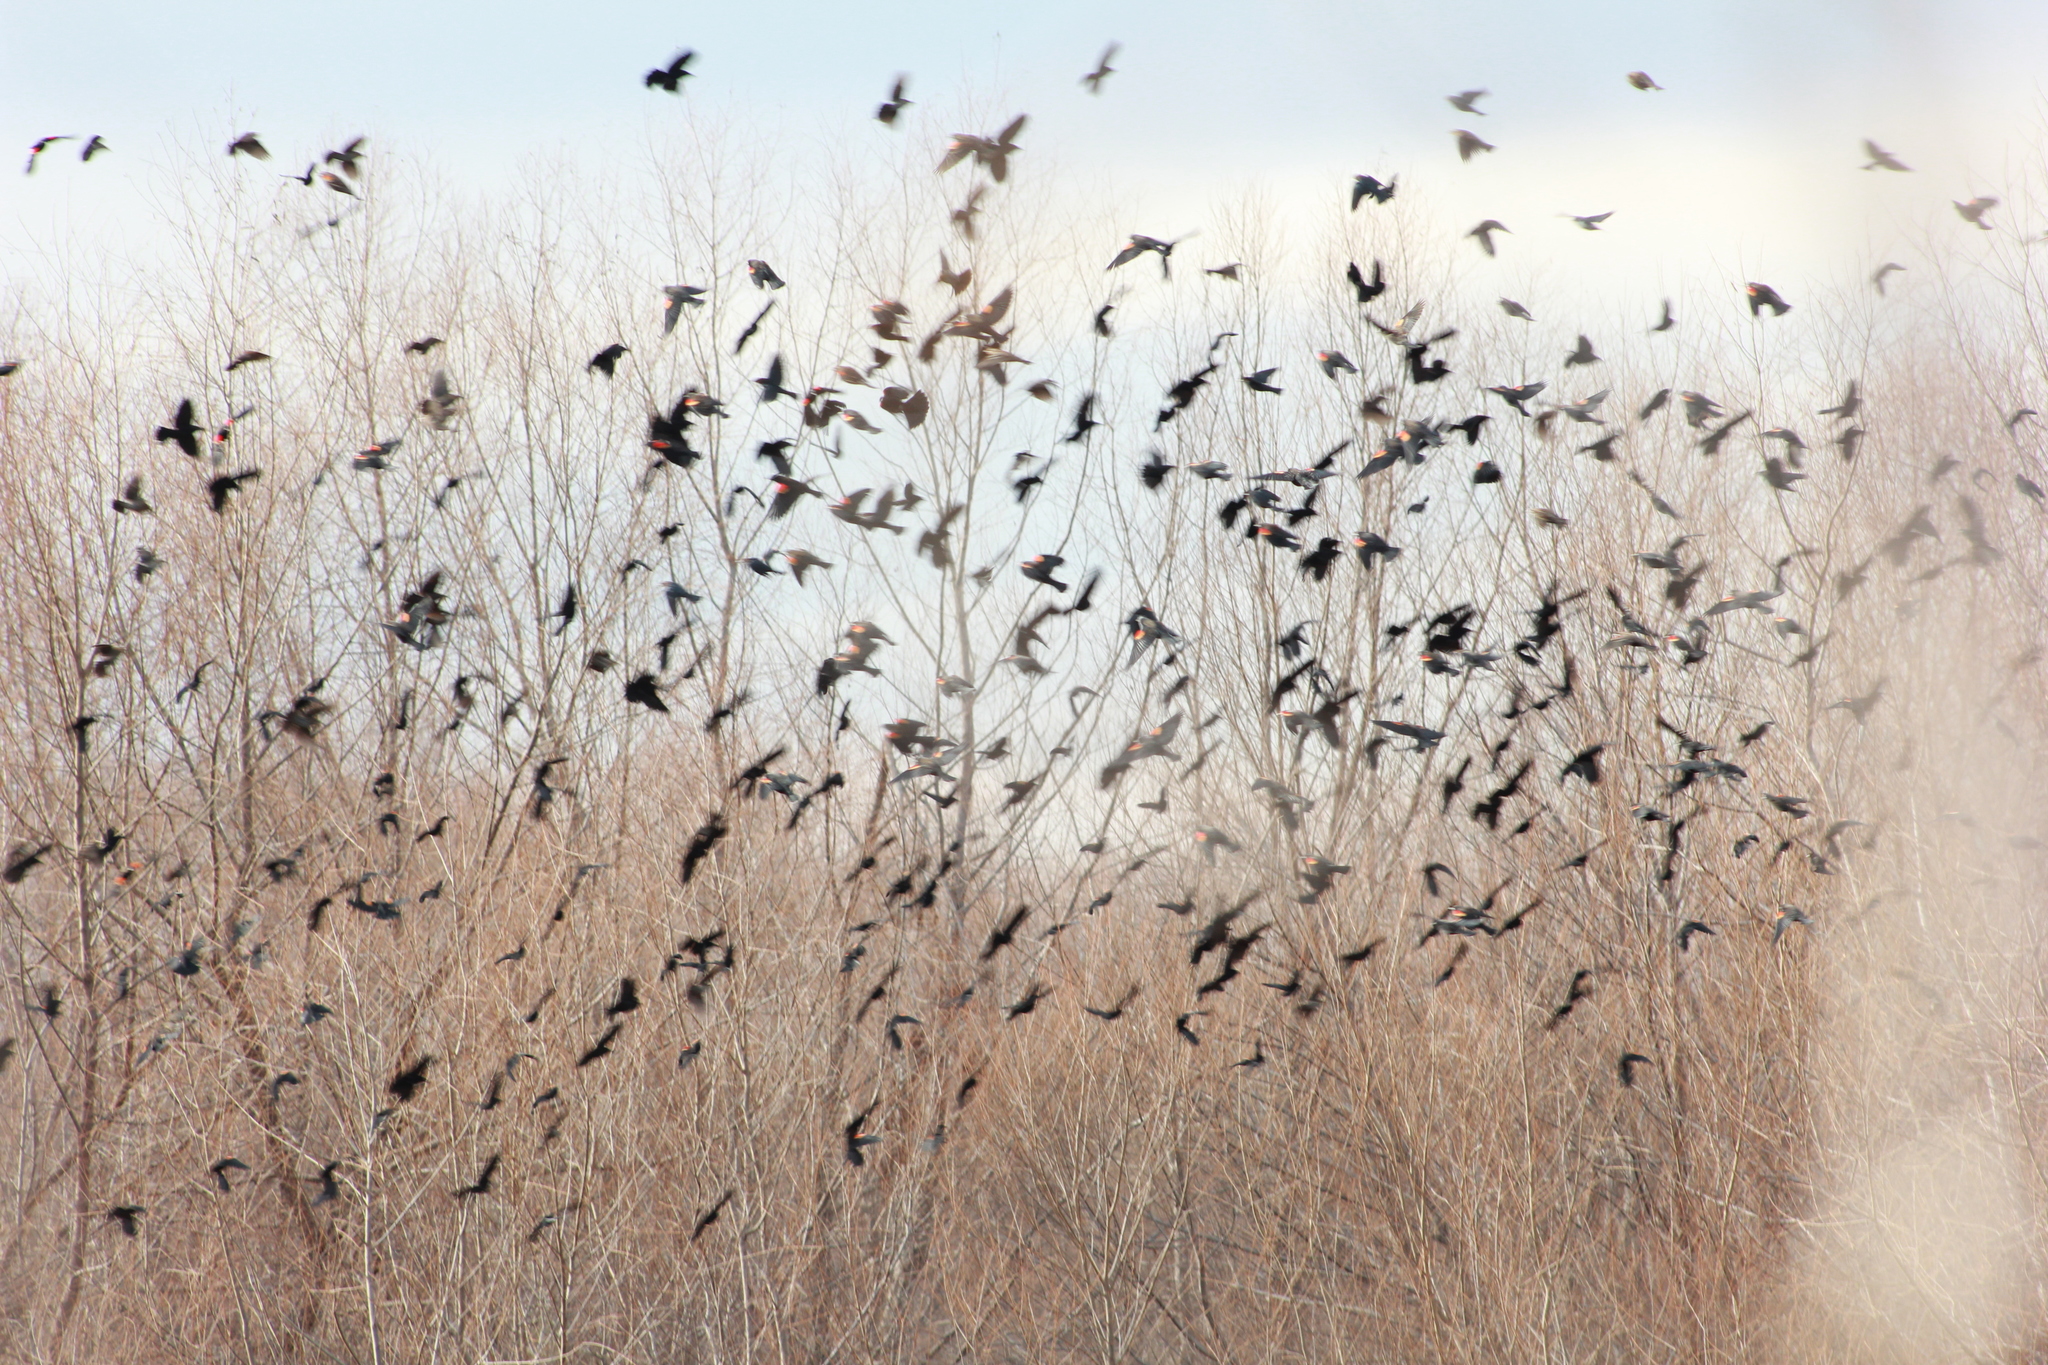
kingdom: Animalia
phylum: Chordata
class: Aves
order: Passeriformes
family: Icteridae
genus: Agelaius
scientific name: Agelaius phoeniceus
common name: Red-winged blackbird
